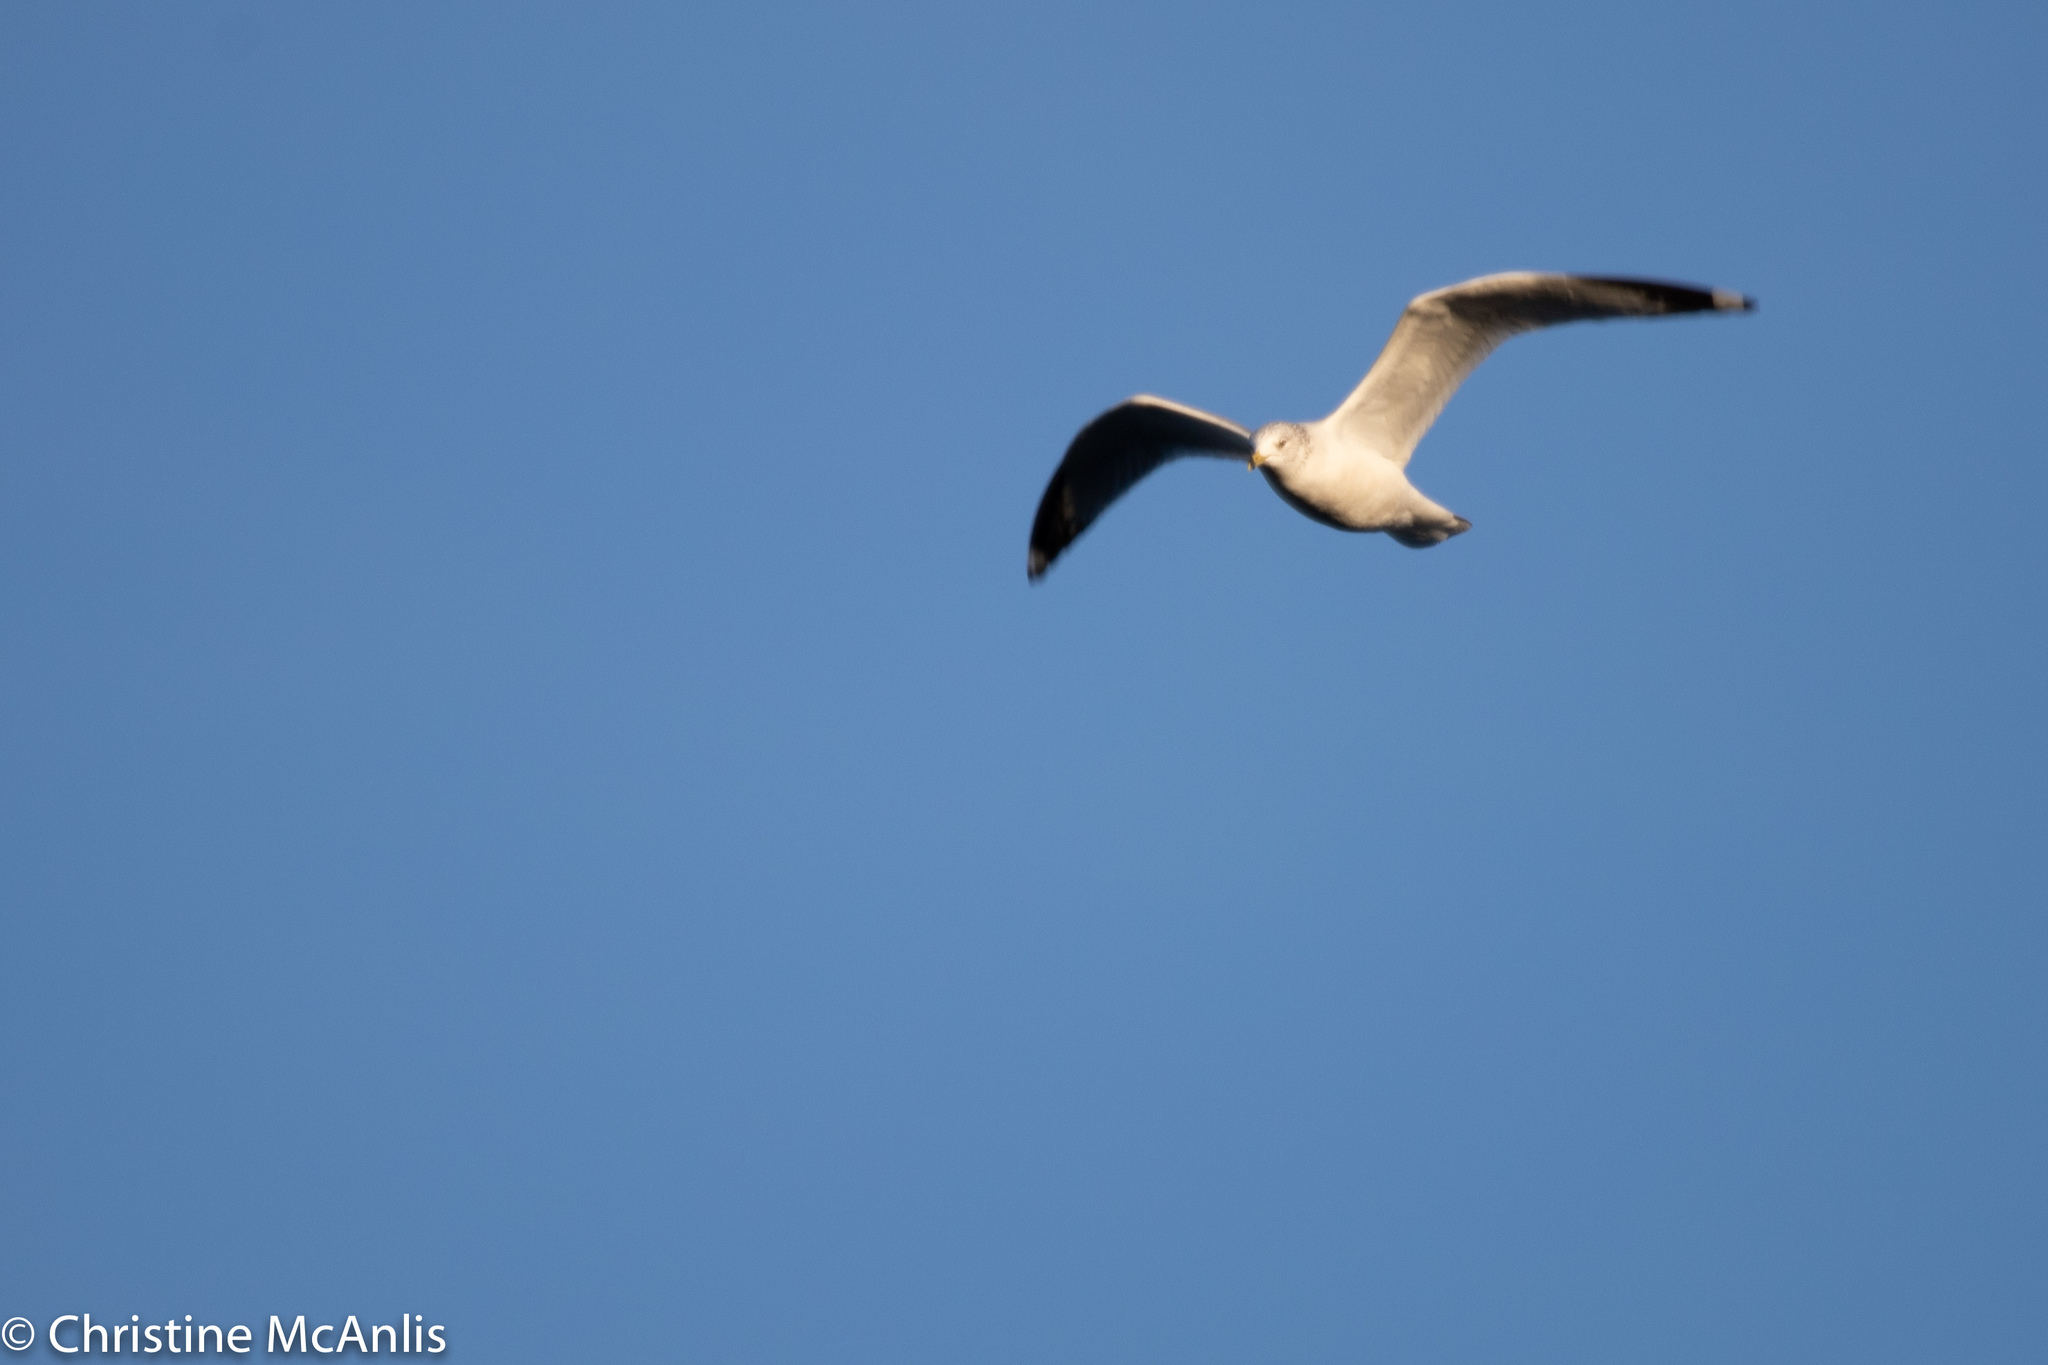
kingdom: Animalia
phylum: Chordata
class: Aves
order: Charadriiformes
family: Laridae
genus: Larus
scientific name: Larus delawarensis
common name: Ring-billed gull
